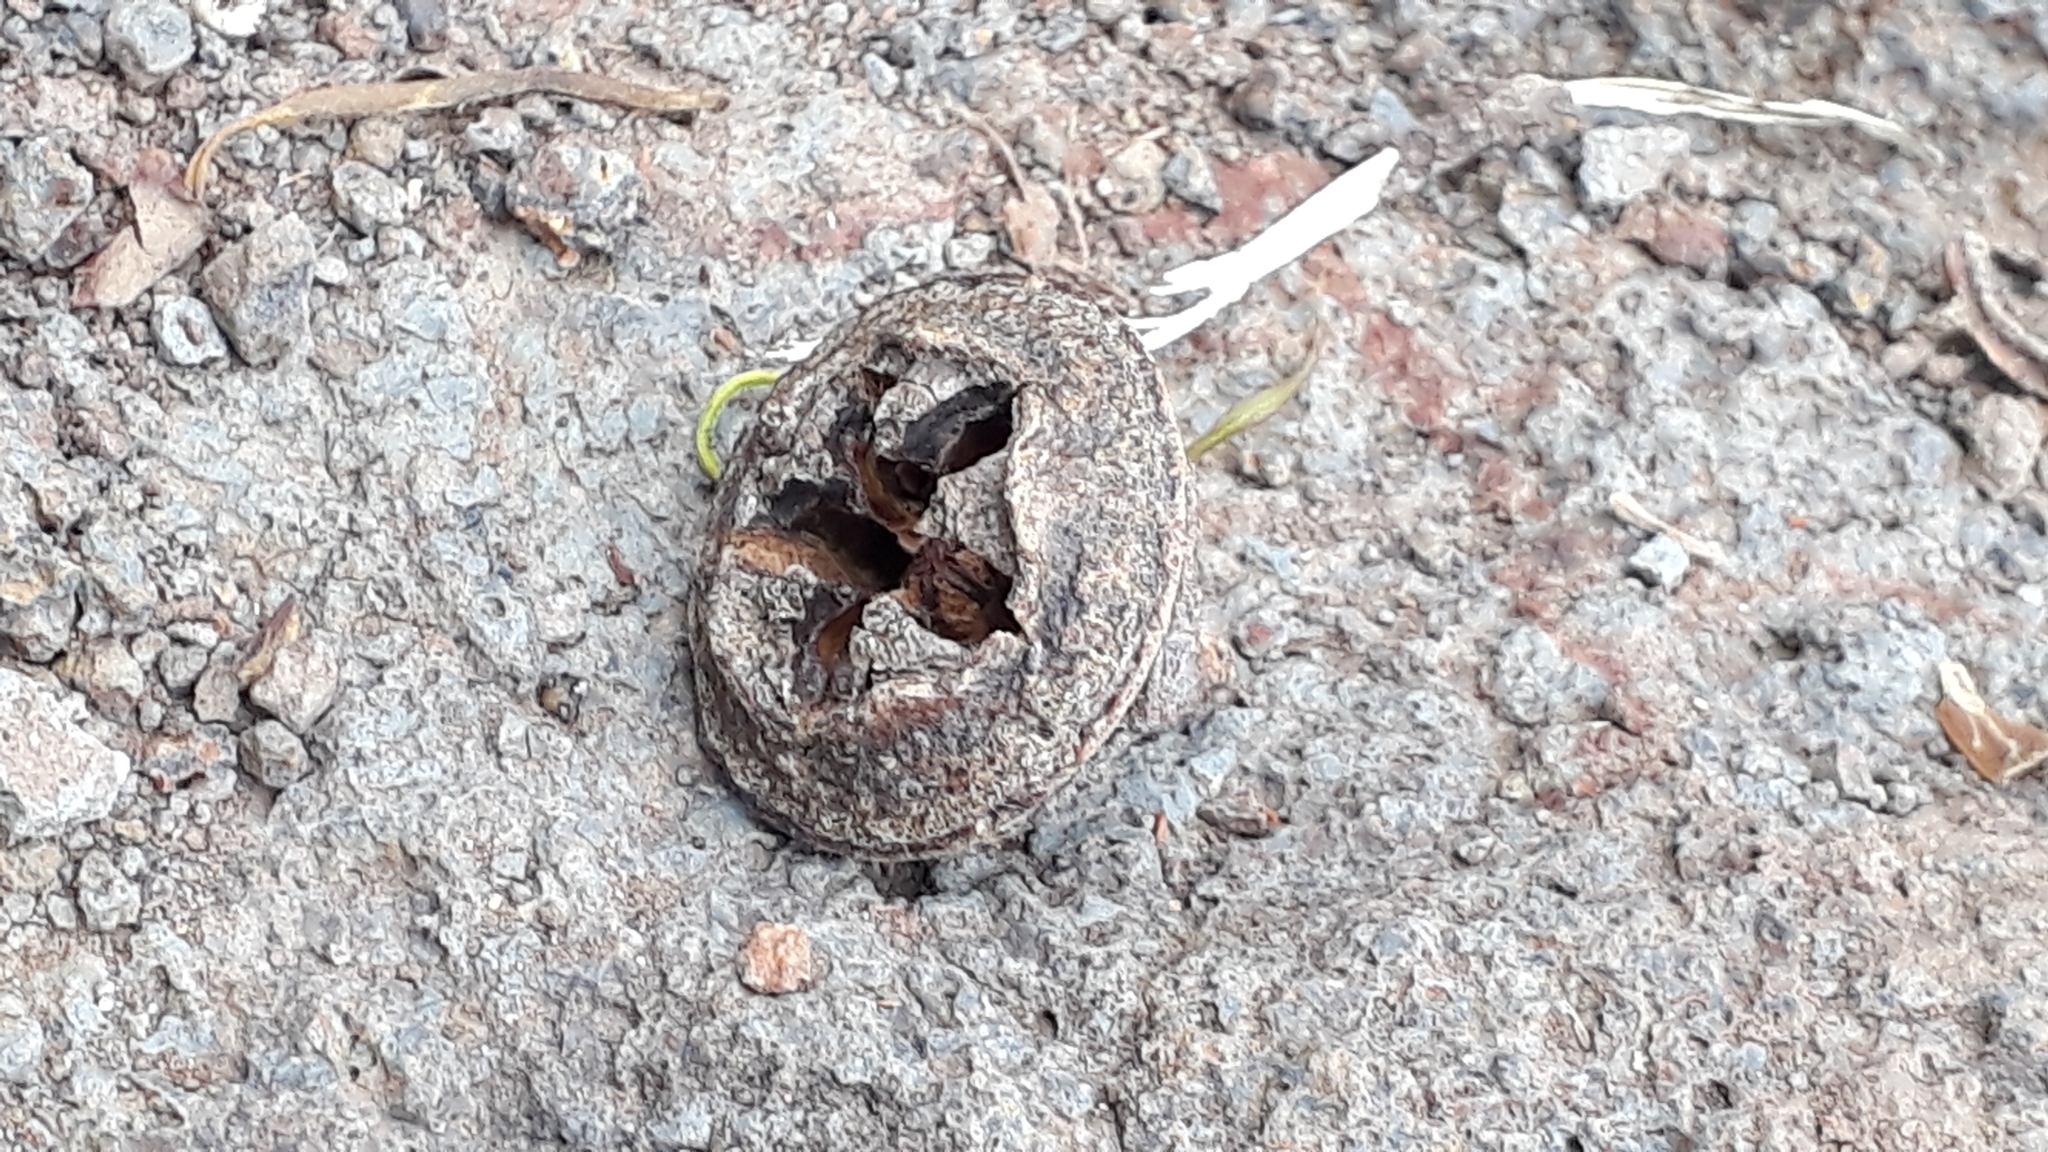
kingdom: Plantae
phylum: Tracheophyta
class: Magnoliopsida
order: Myrtales
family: Myrtaceae
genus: Eucalyptus
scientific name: Eucalyptus globulus
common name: Southern blue-gum
